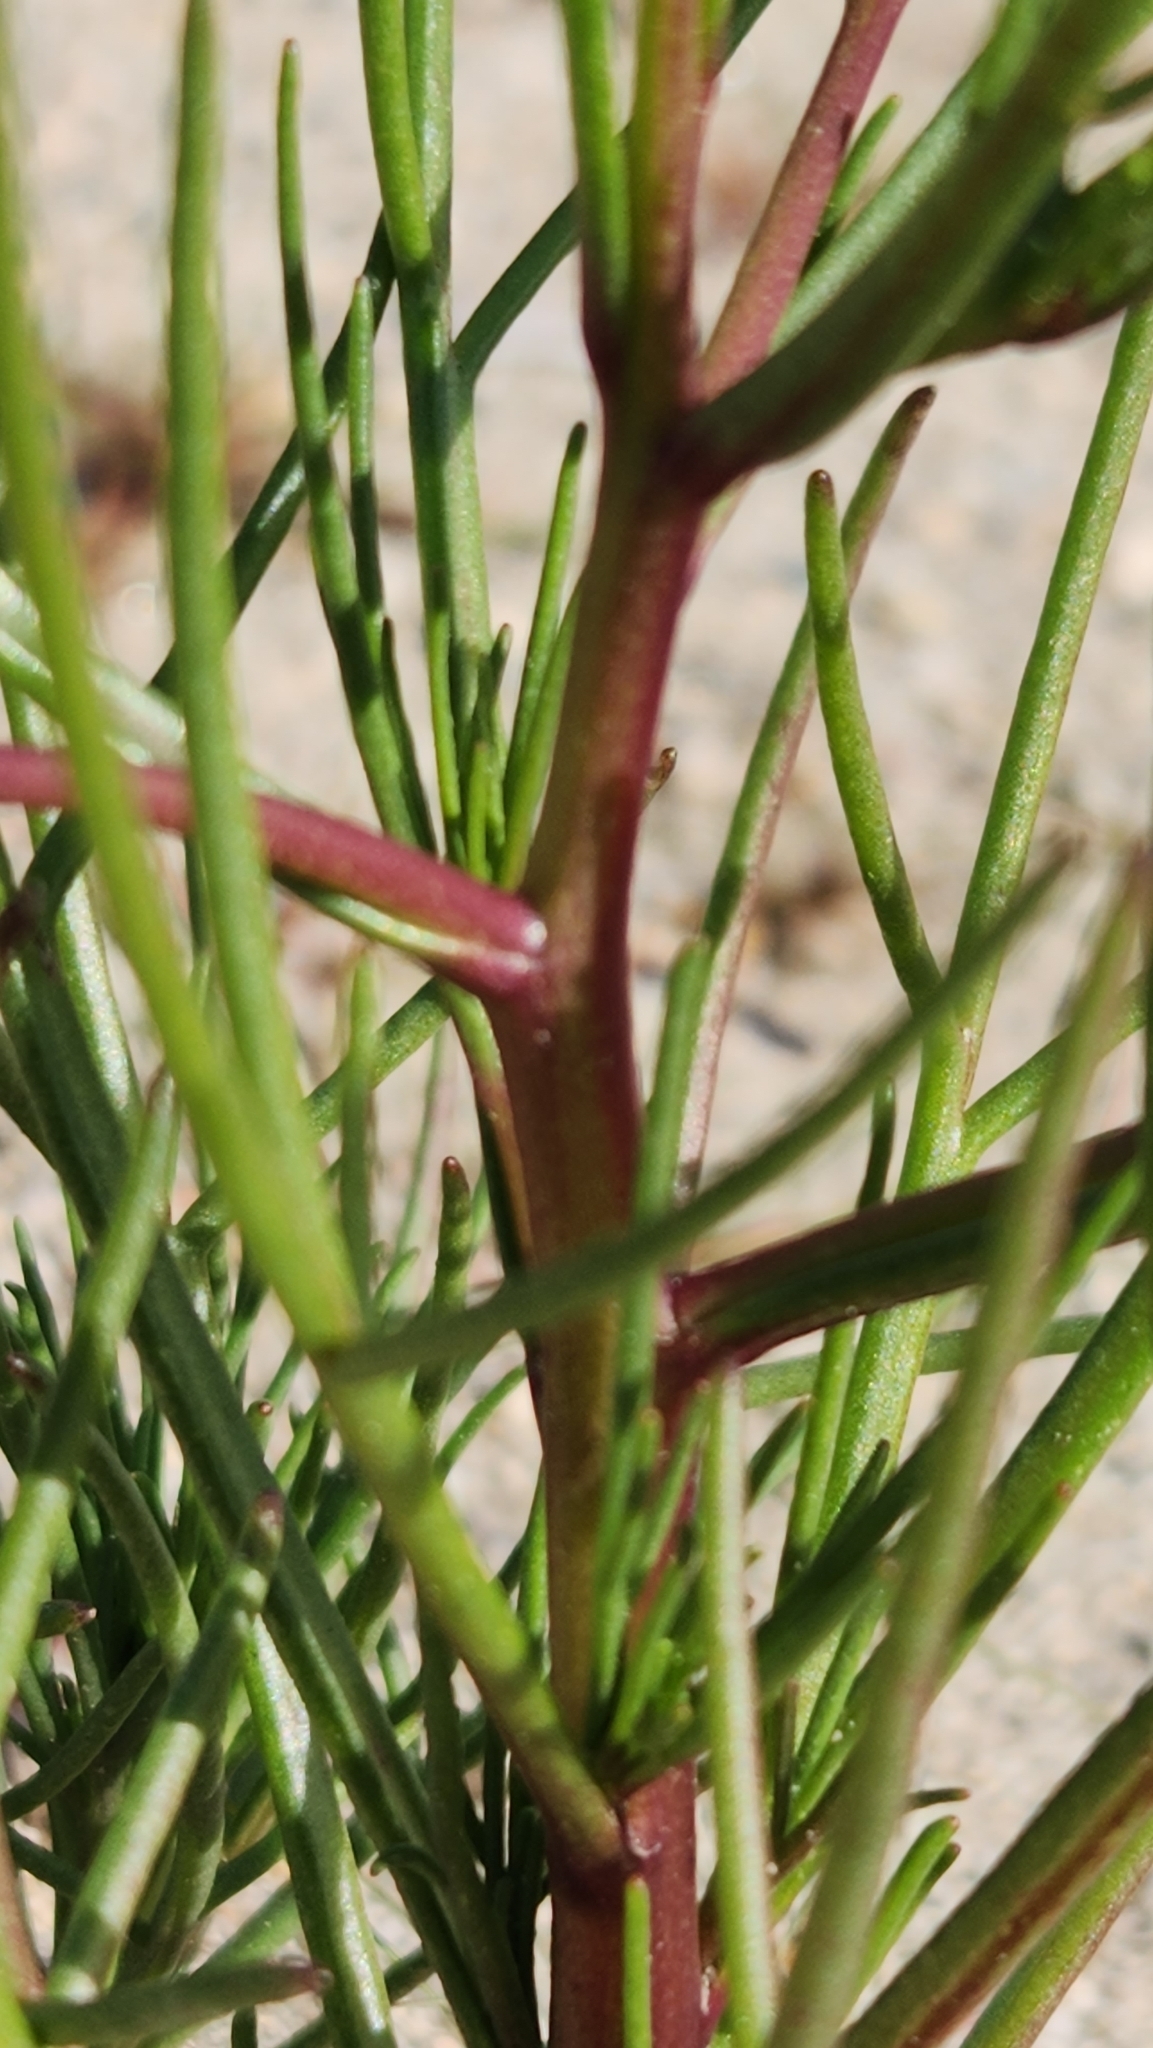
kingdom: Plantae
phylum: Tracheophyta
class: Magnoliopsida
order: Asterales
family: Asteraceae
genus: Chaenactis
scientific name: Chaenactis fremontii
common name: Fremont pincushion
